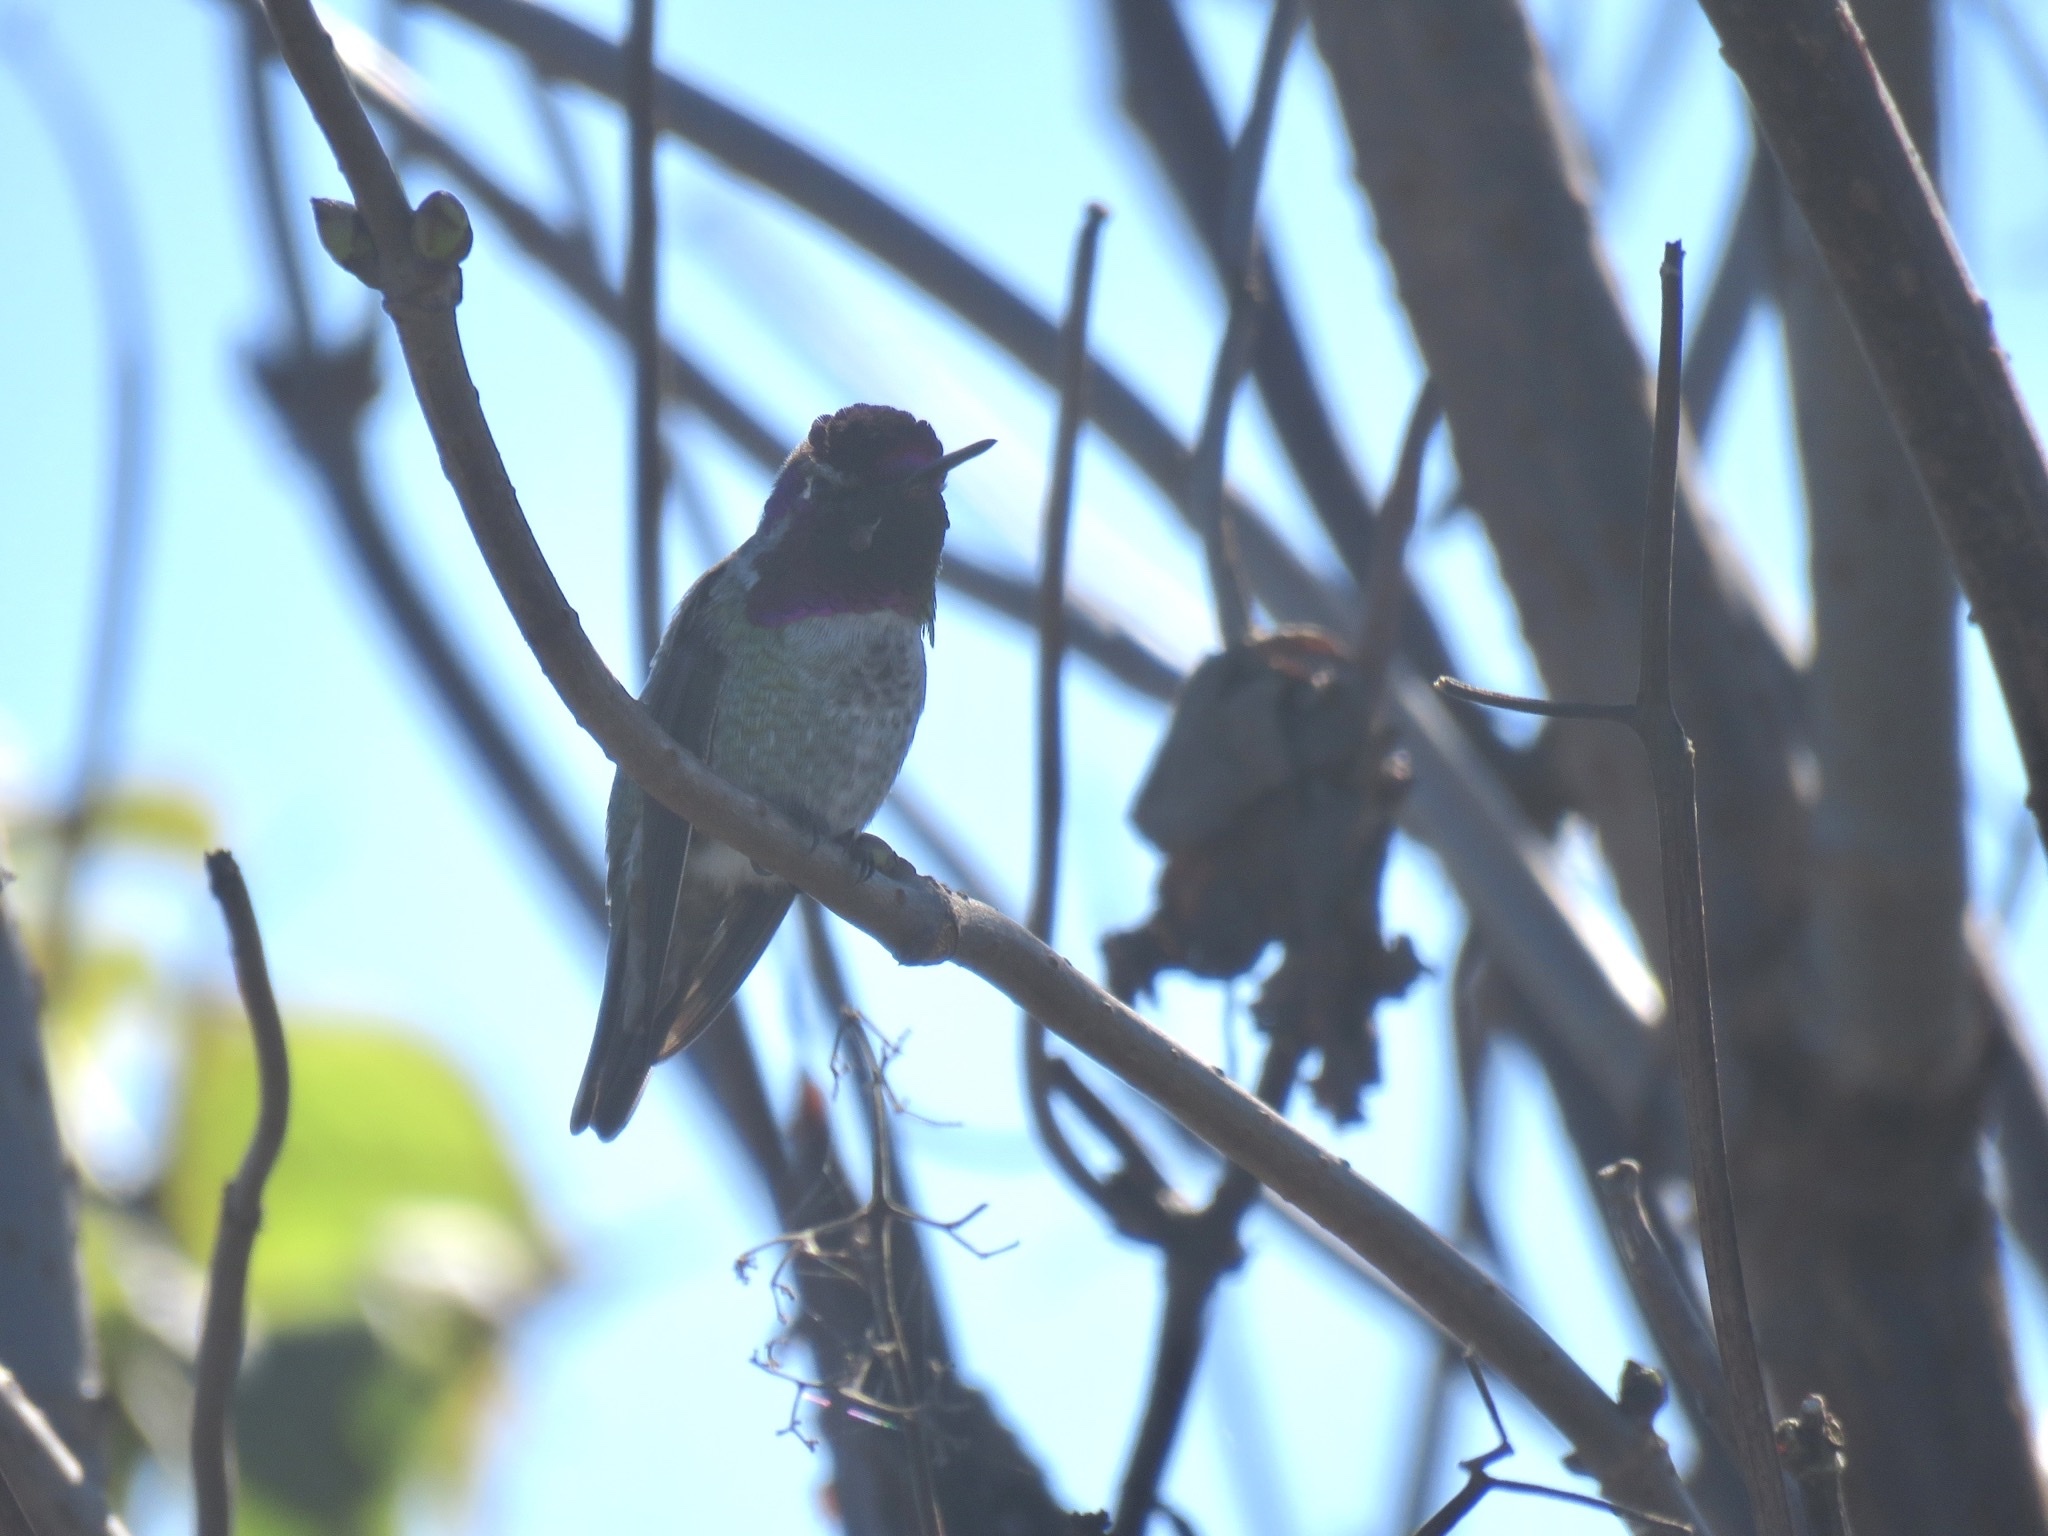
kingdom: Animalia
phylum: Chordata
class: Aves
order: Apodiformes
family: Trochilidae
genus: Calypte
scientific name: Calypte anna
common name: Anna's hummingbird
